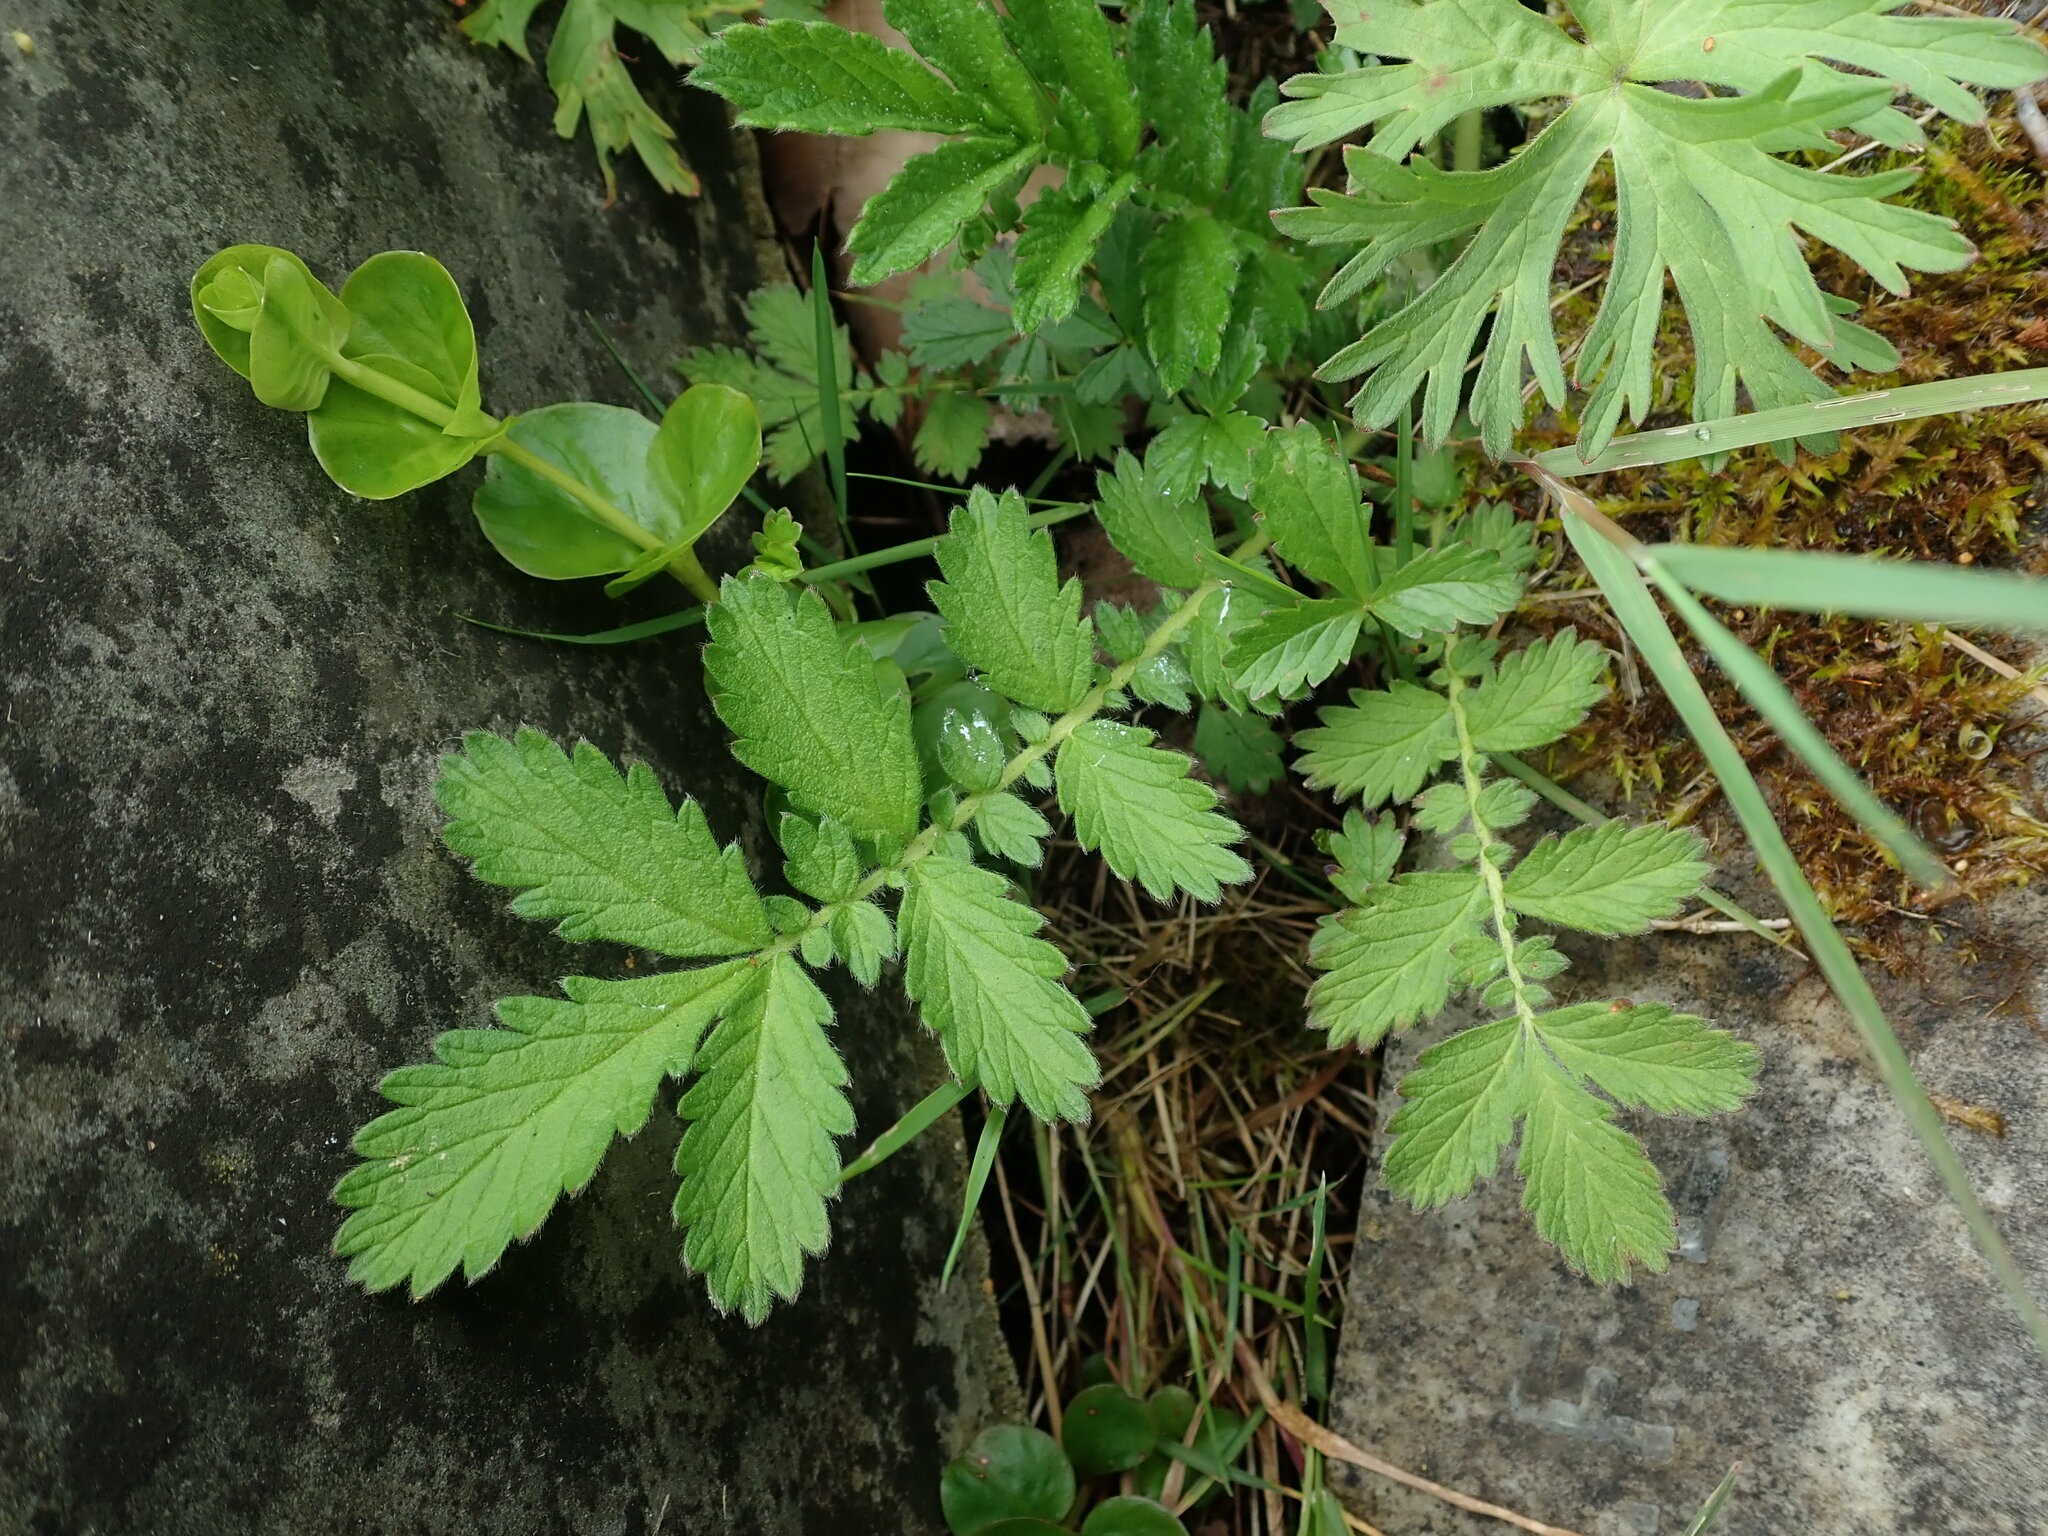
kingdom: Plantae
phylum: Tracheophyta
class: Magnoliopsida
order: Rosales
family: Rosaceae
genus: Agrimonia
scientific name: Agrimonia eupatoria
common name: Agrimony
